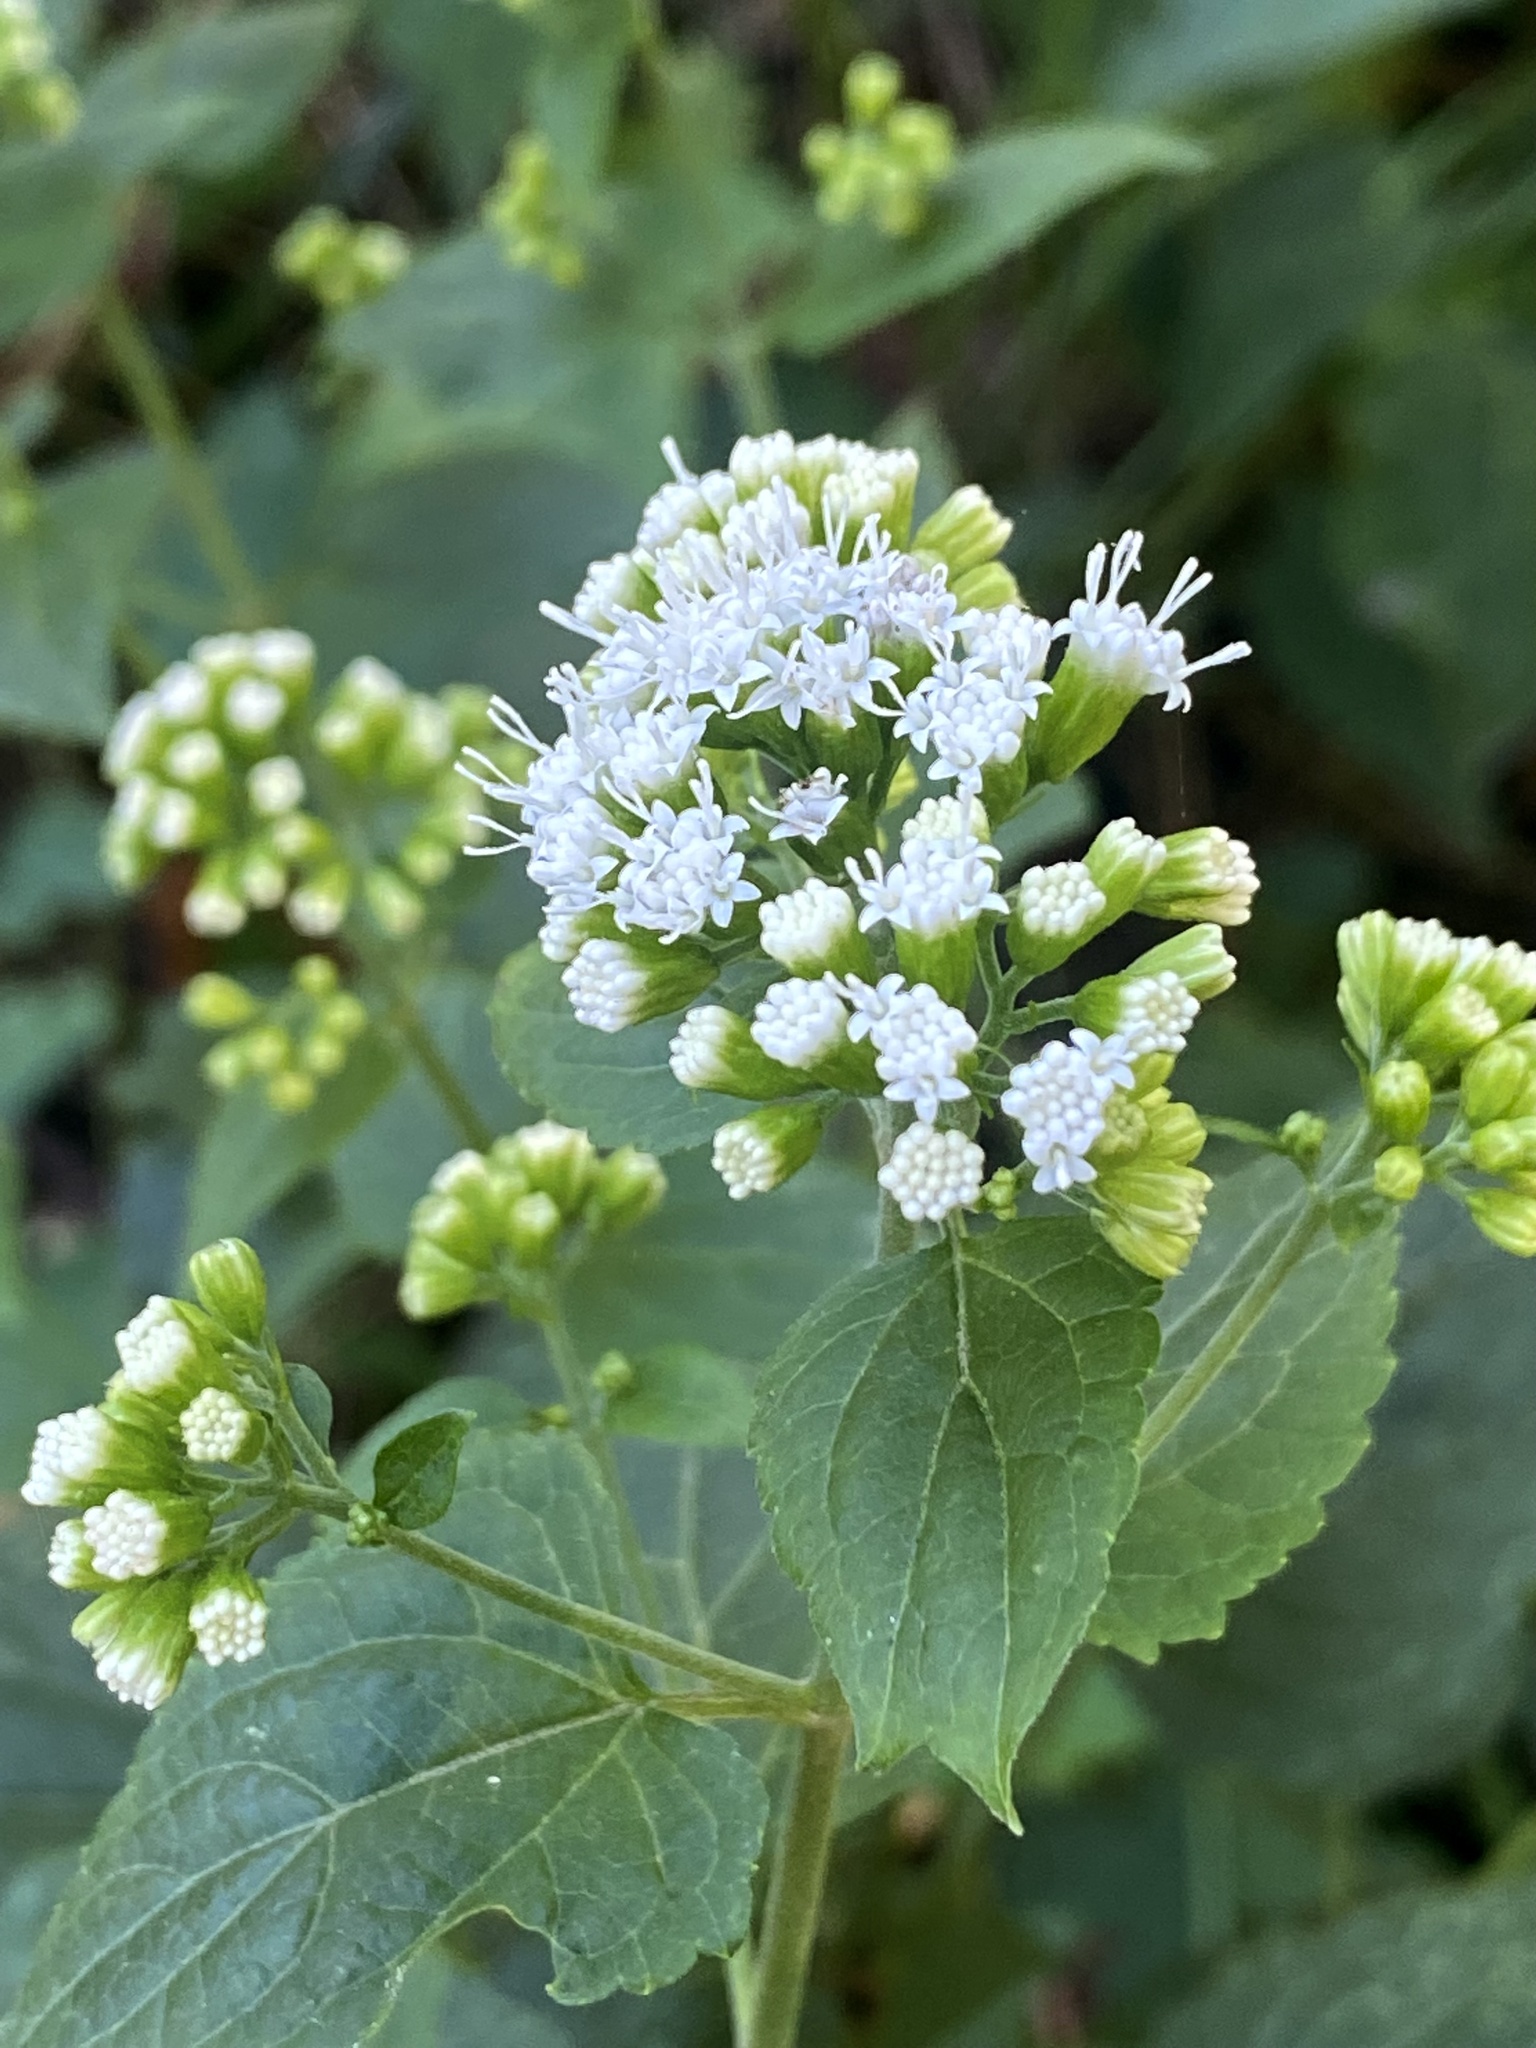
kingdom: Plantae
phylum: Tracheophyta
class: Magnoliopsida
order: Asterales
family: Asteraceae
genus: Ageratina
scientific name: Ageratina altissima
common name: White snakeroot
